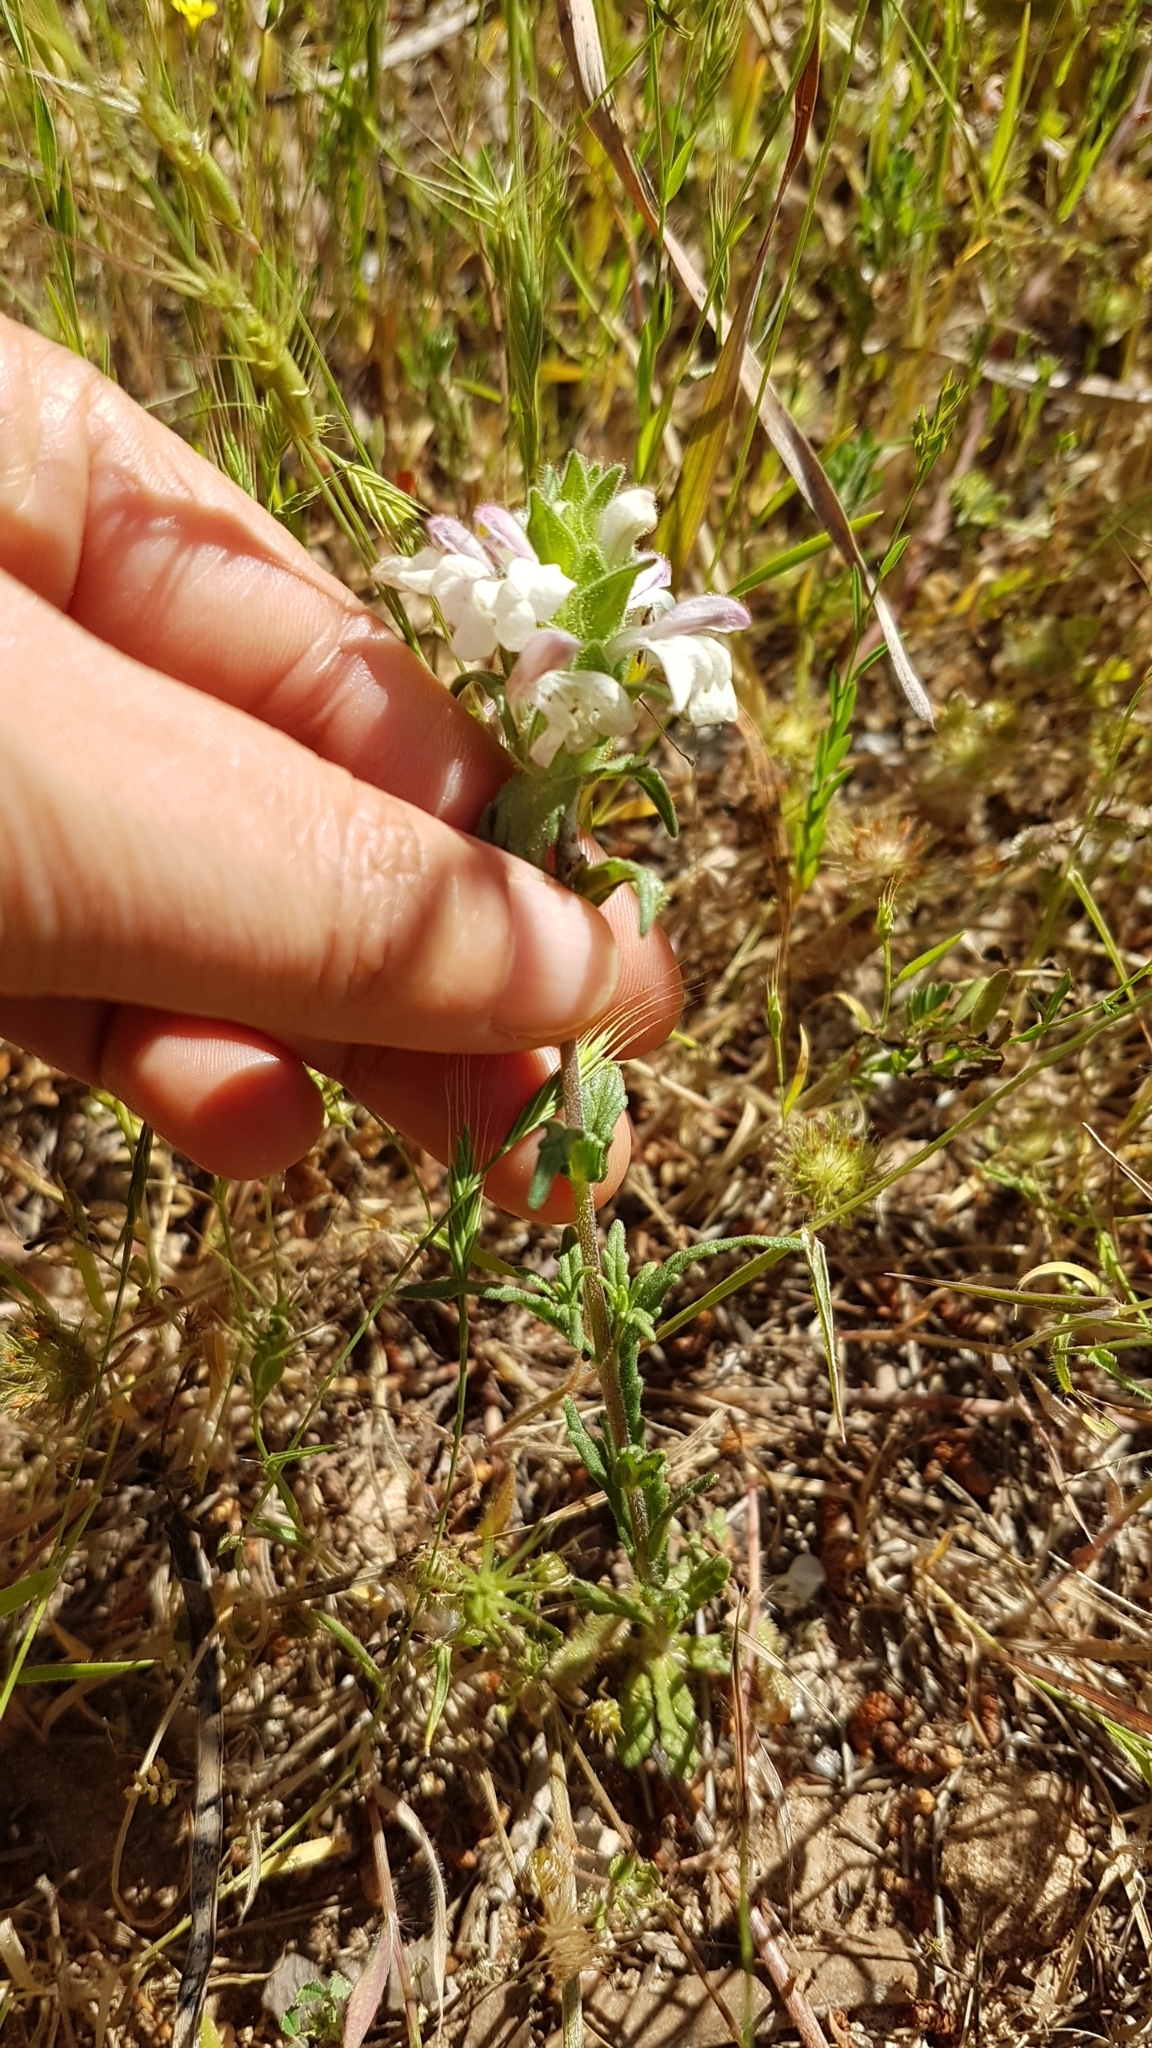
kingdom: Plantae
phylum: Tracheophyta
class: Magnoliopsida
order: Lamiales
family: Orobanchaceae
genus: Bellardia
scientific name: Bellardia trixago
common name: Mediterranean lineseed
